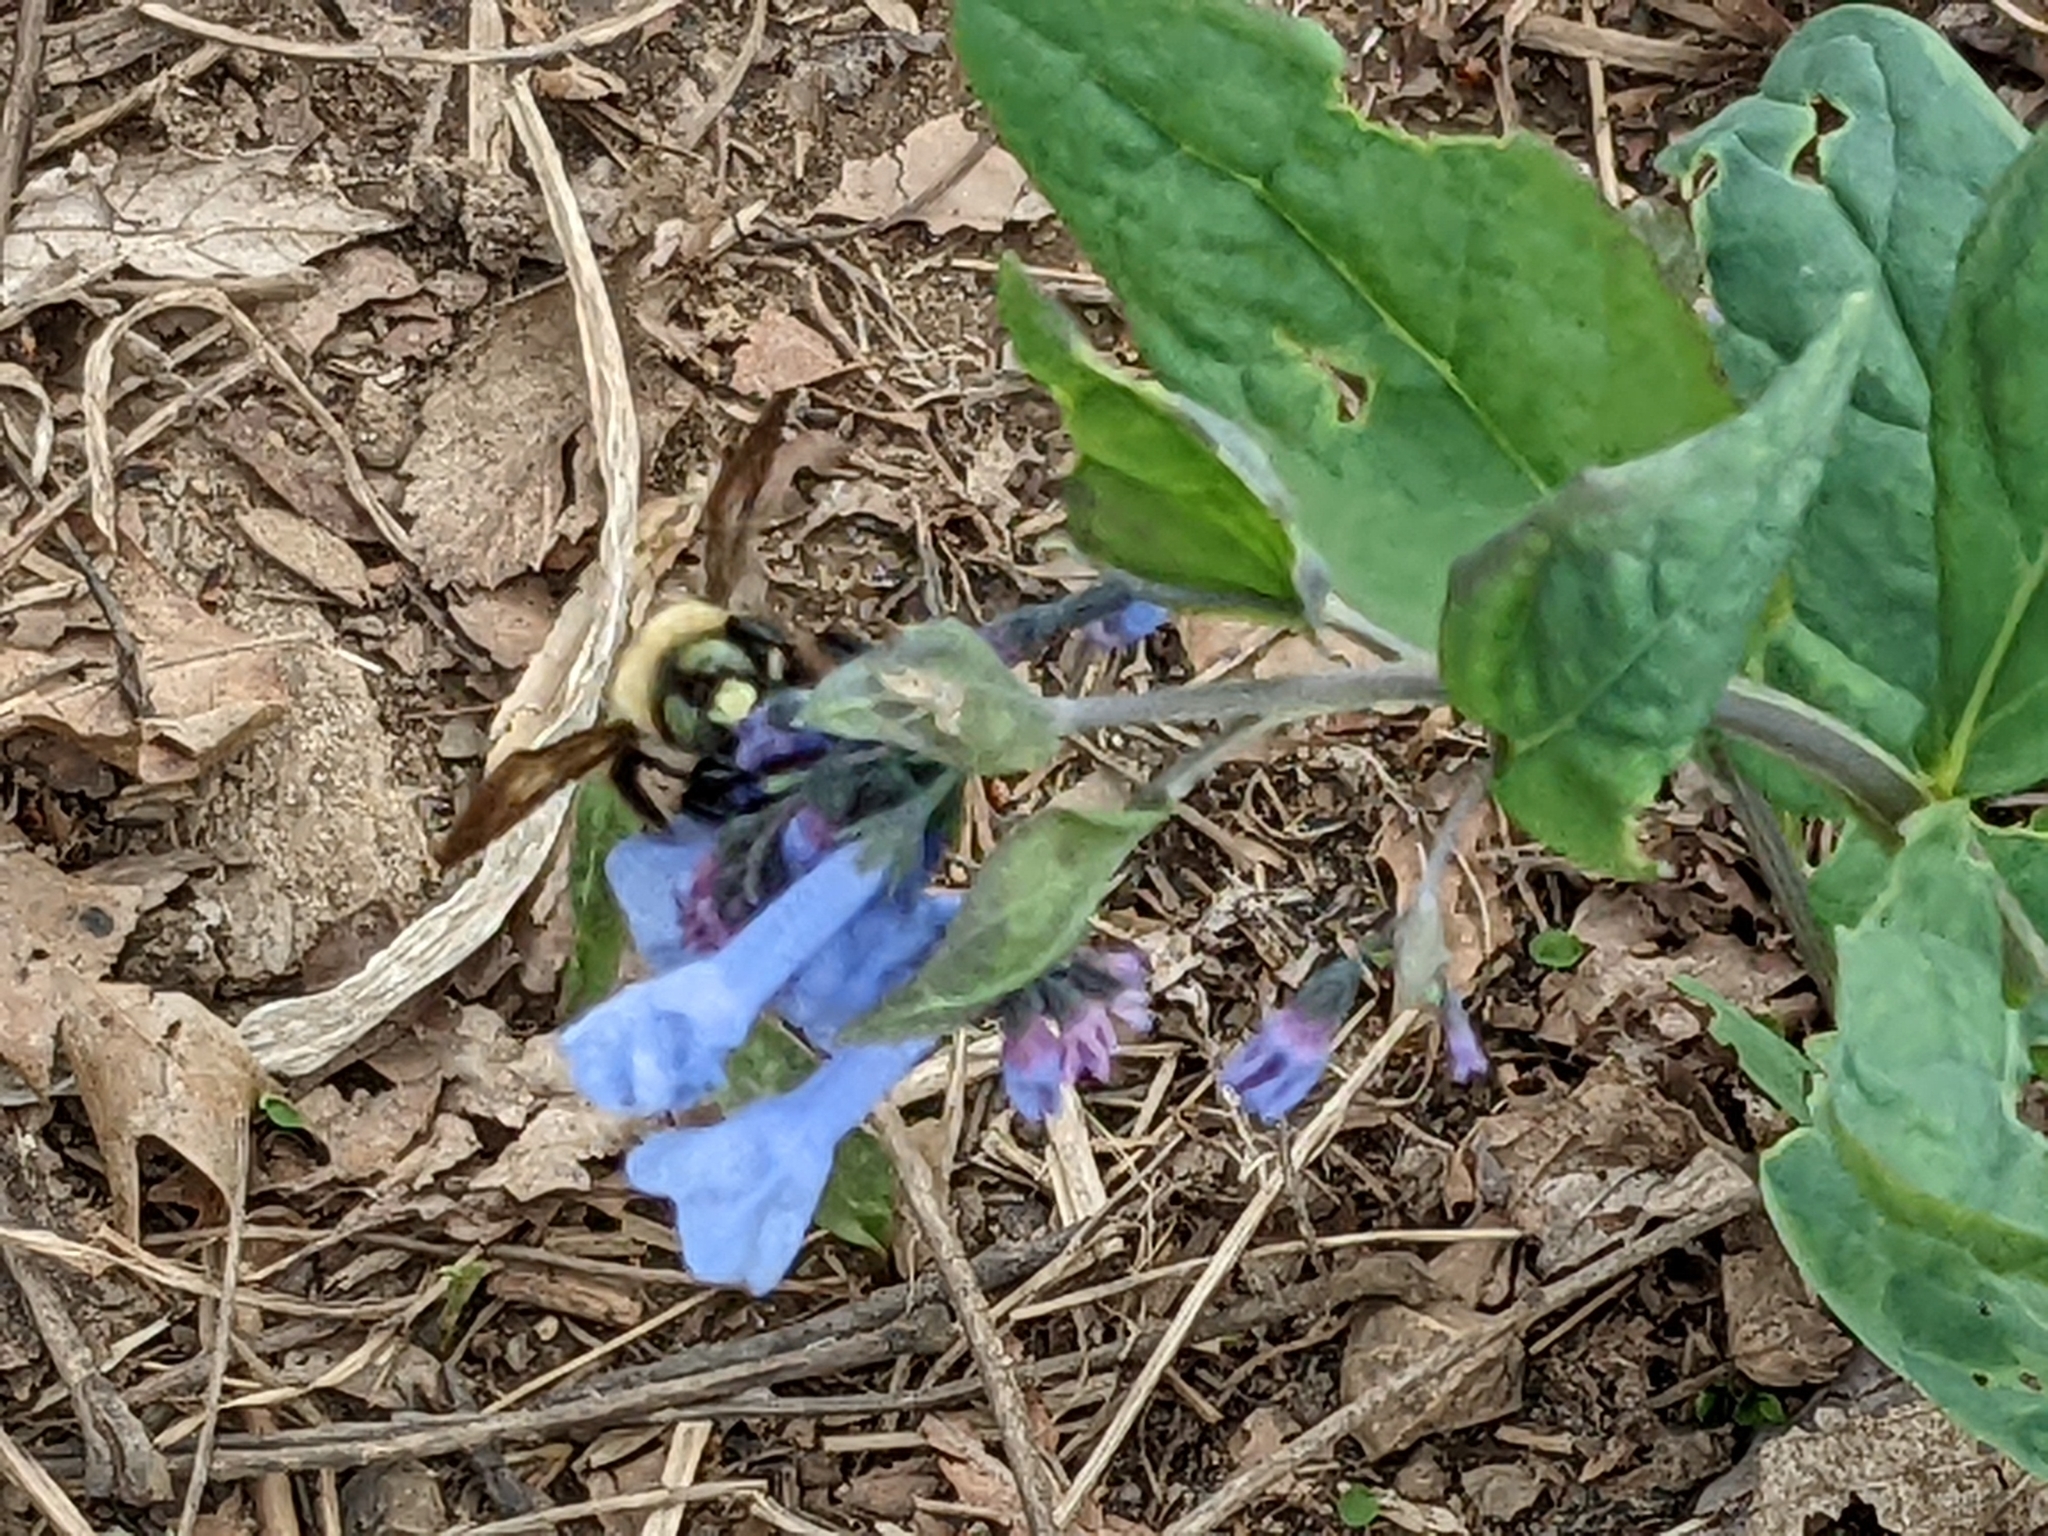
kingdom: Animalia
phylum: Arthropoda
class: Insecta
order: Hymenoptera
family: Apidae
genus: Xylocopa
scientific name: Xylocopa virginica
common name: Carpenter bee
